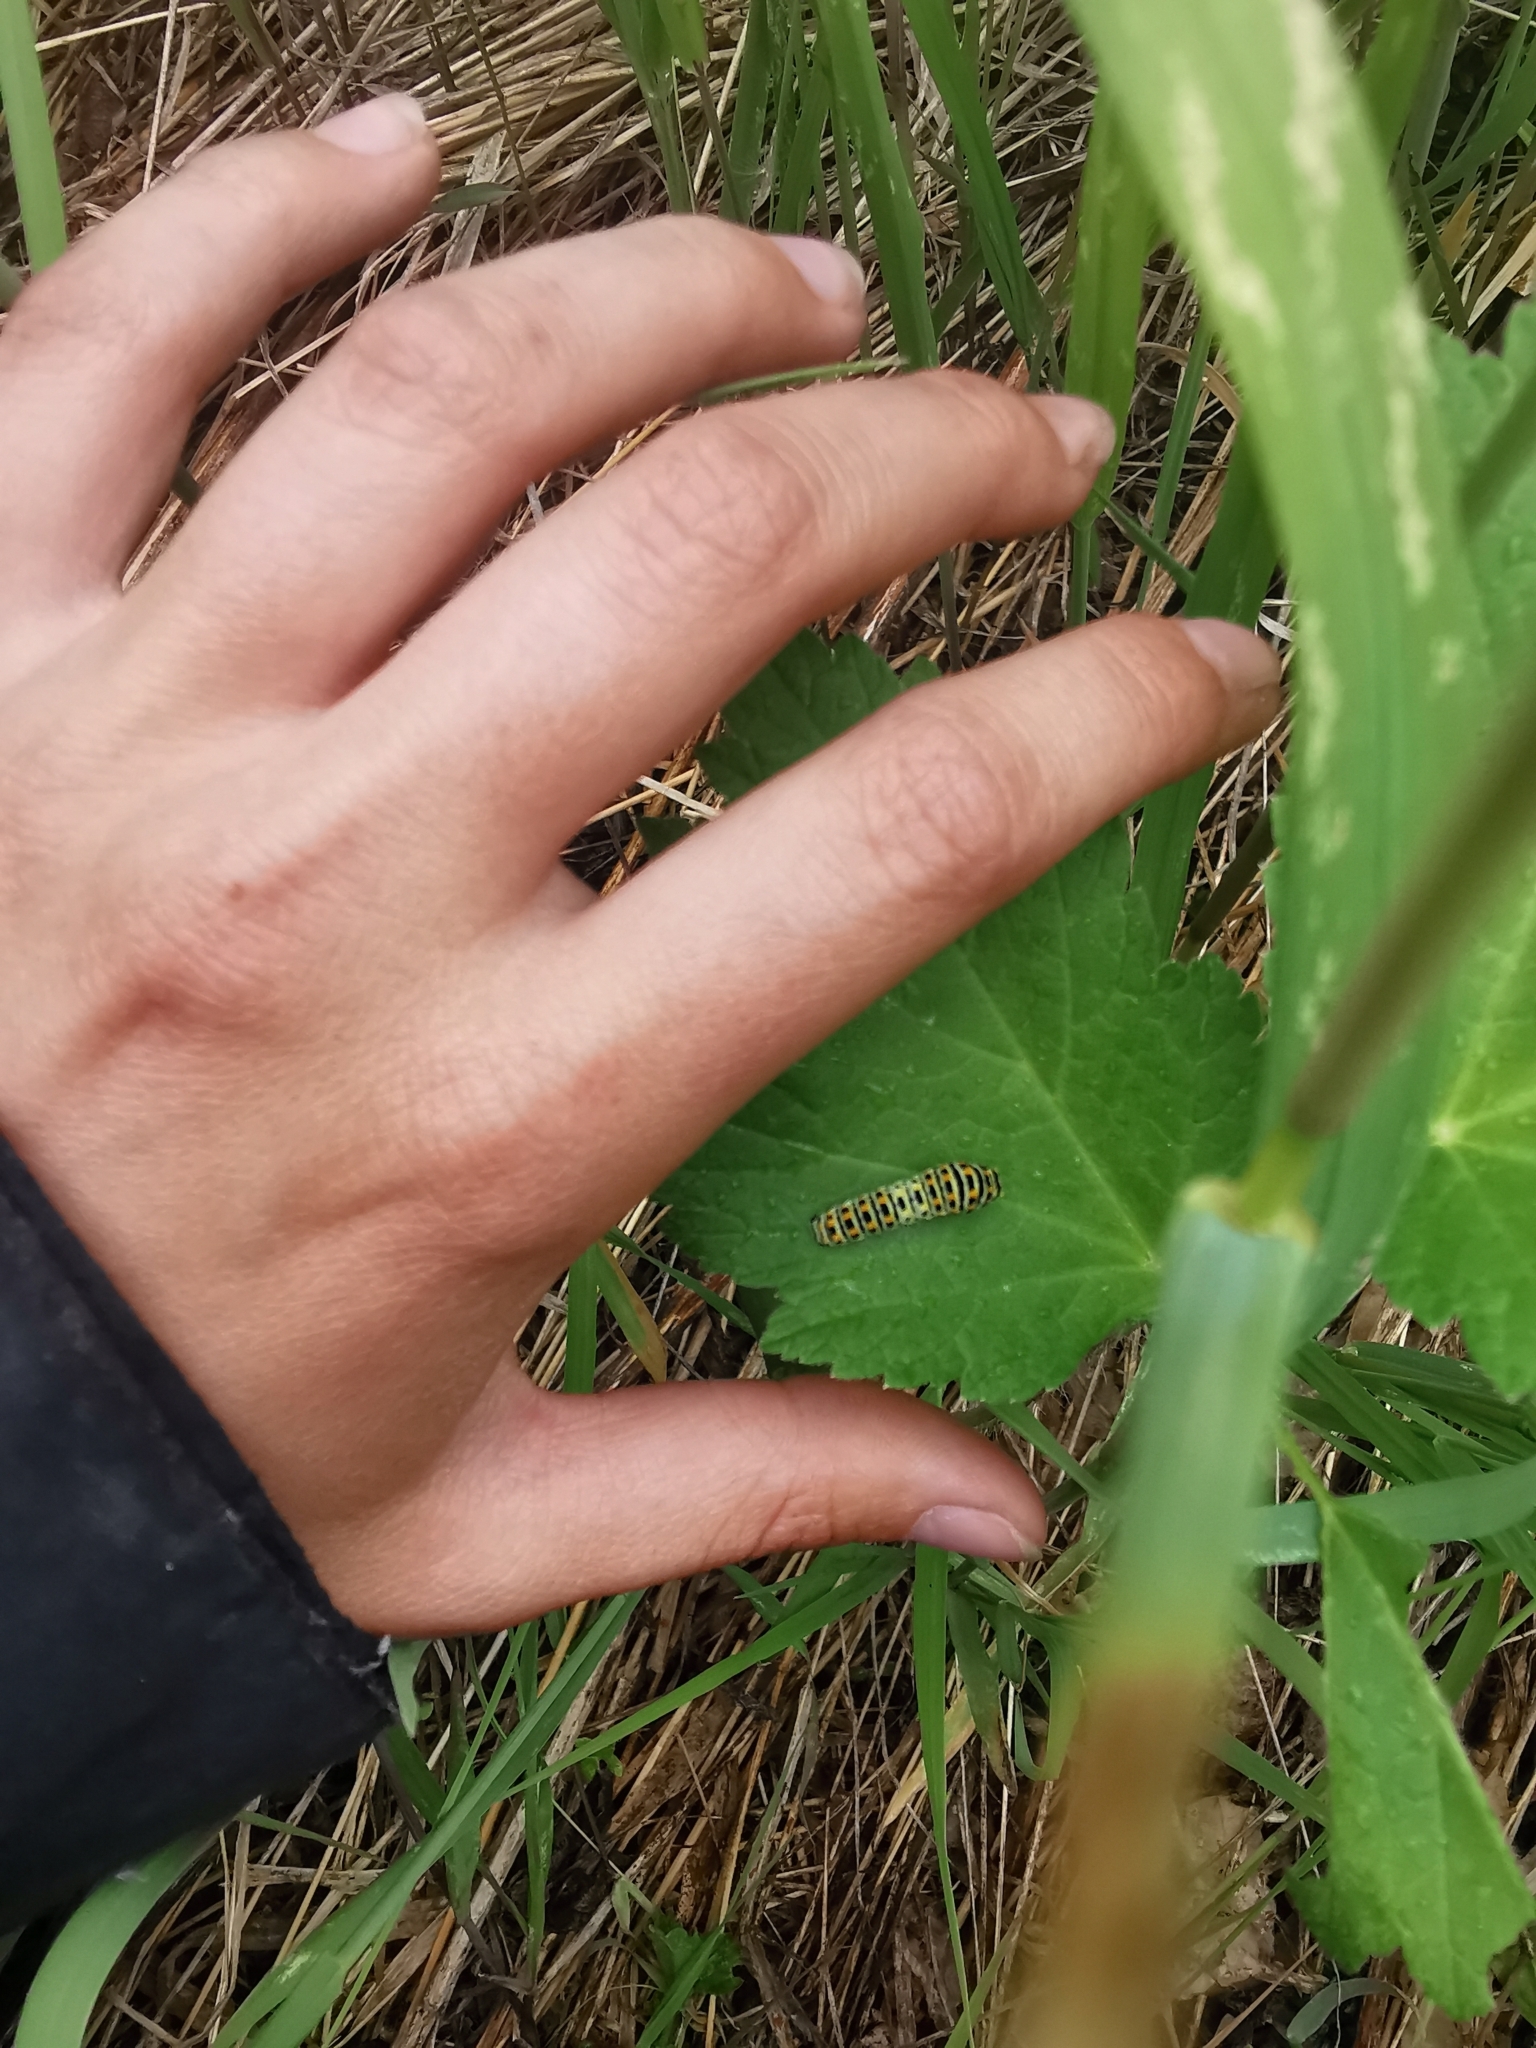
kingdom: Animalia
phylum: Arthropoda
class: Insecta
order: Lepidoptera
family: Papilionidae
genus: Papilio
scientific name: Papilio machaon
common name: Swallowtail
